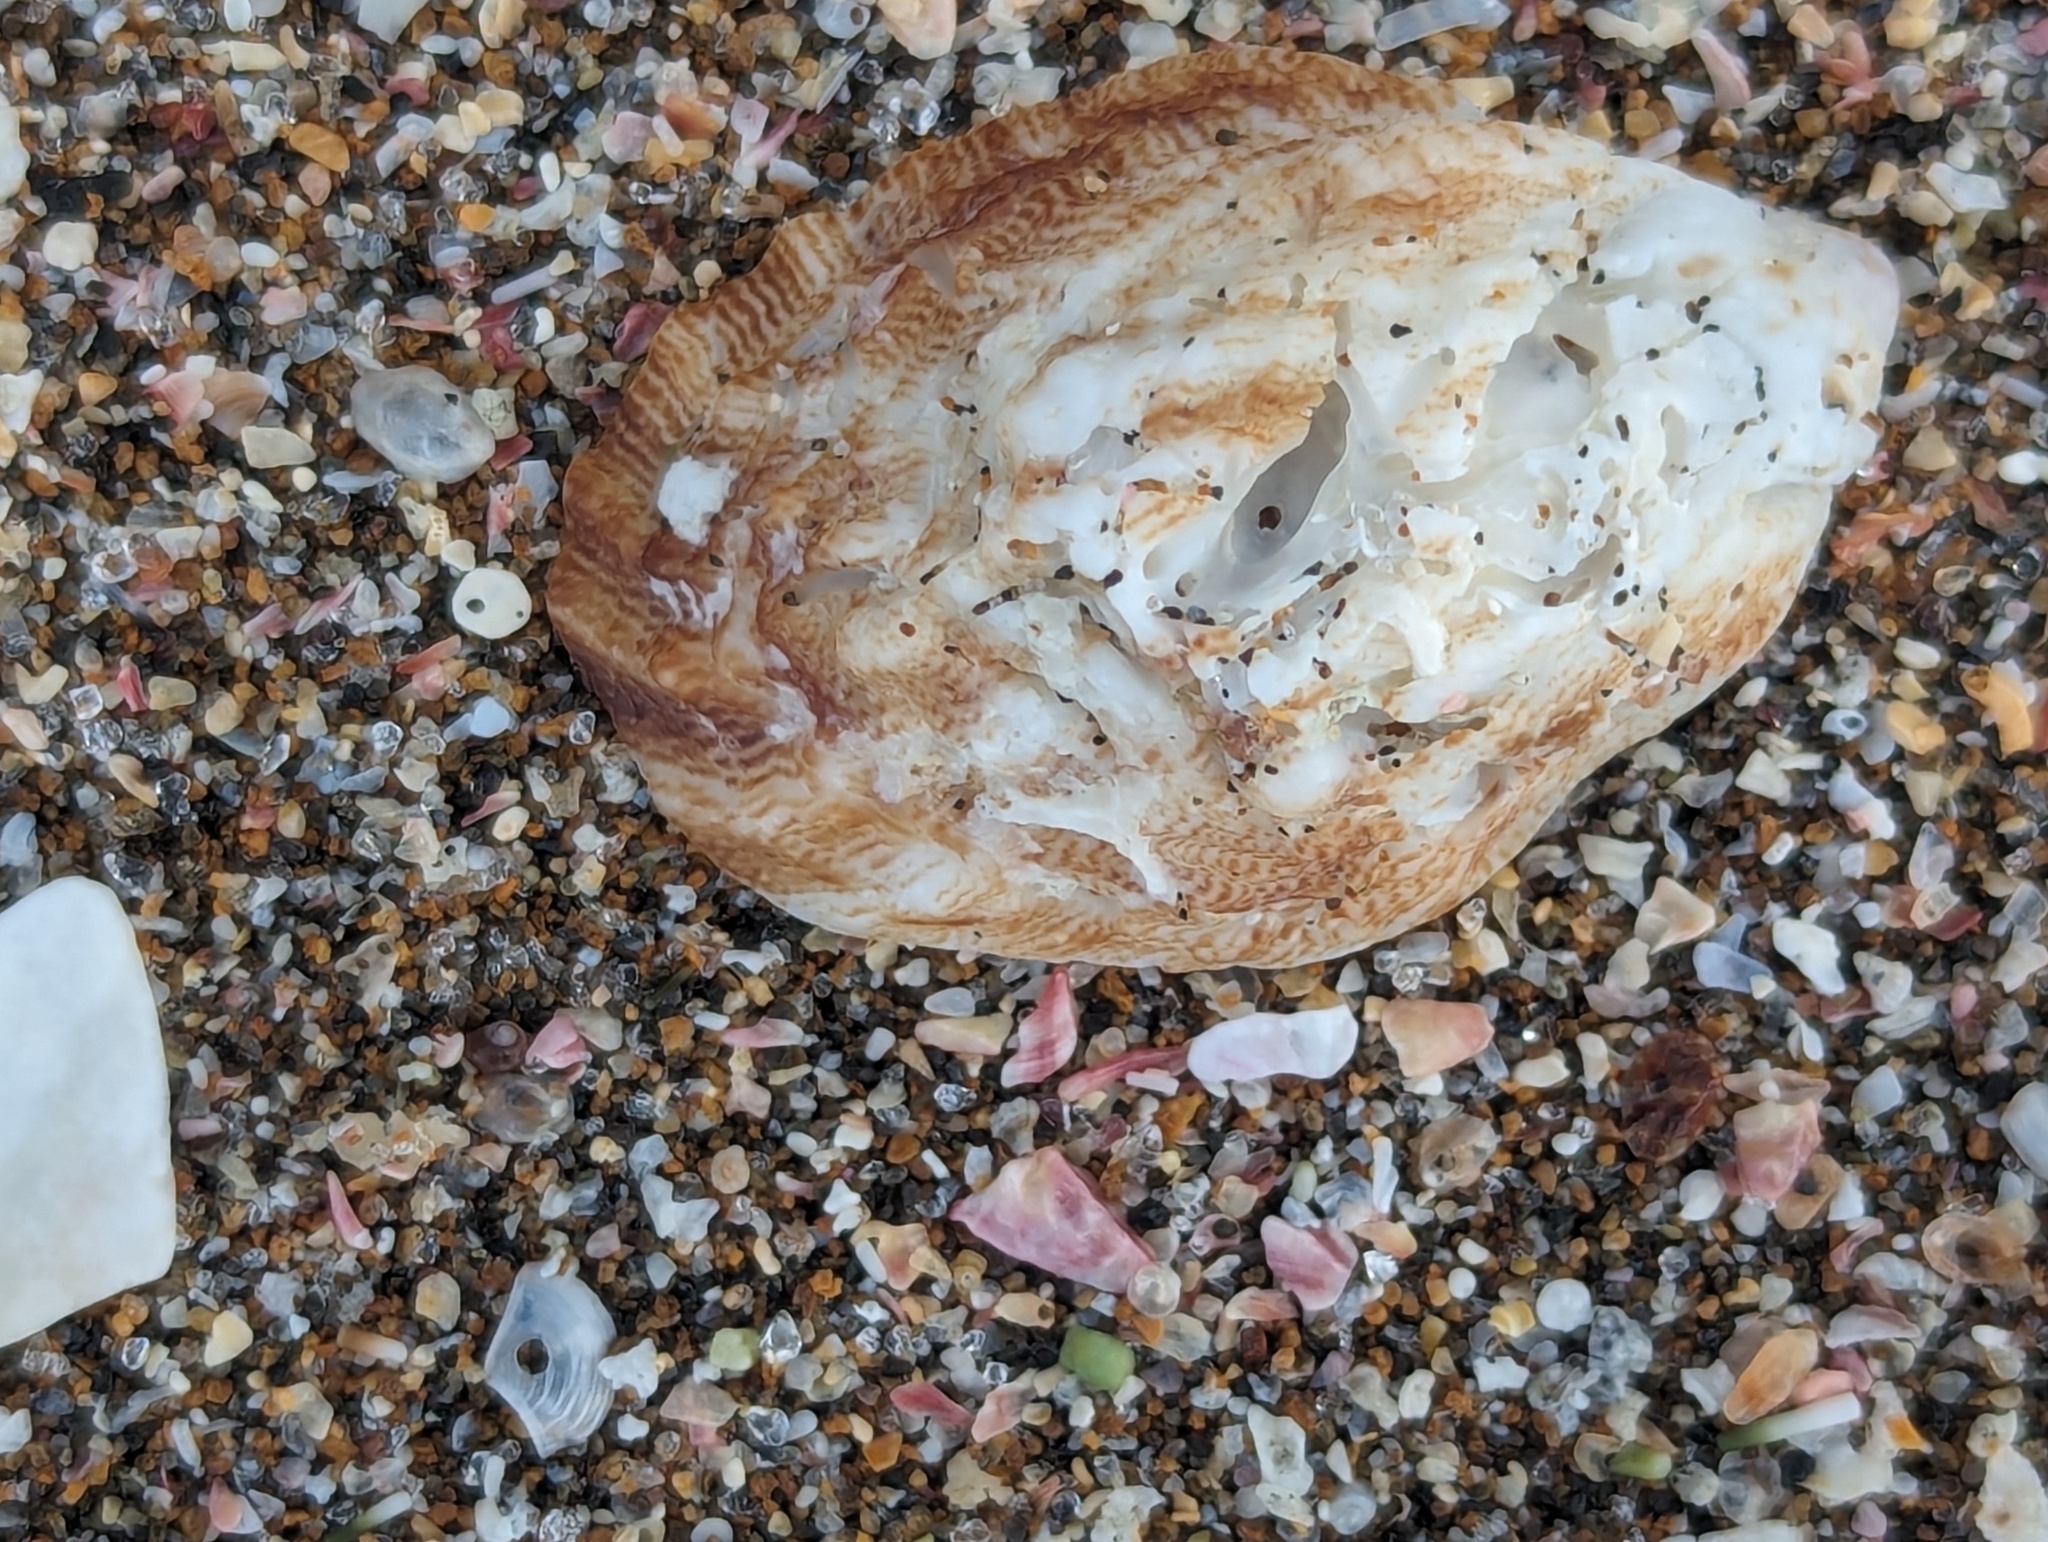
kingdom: Animalia
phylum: Mollusca
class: Gastropoda
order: Littorinimorpha
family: Calyptraeidae
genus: Maoricrypta
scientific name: Maoricrypta costata
